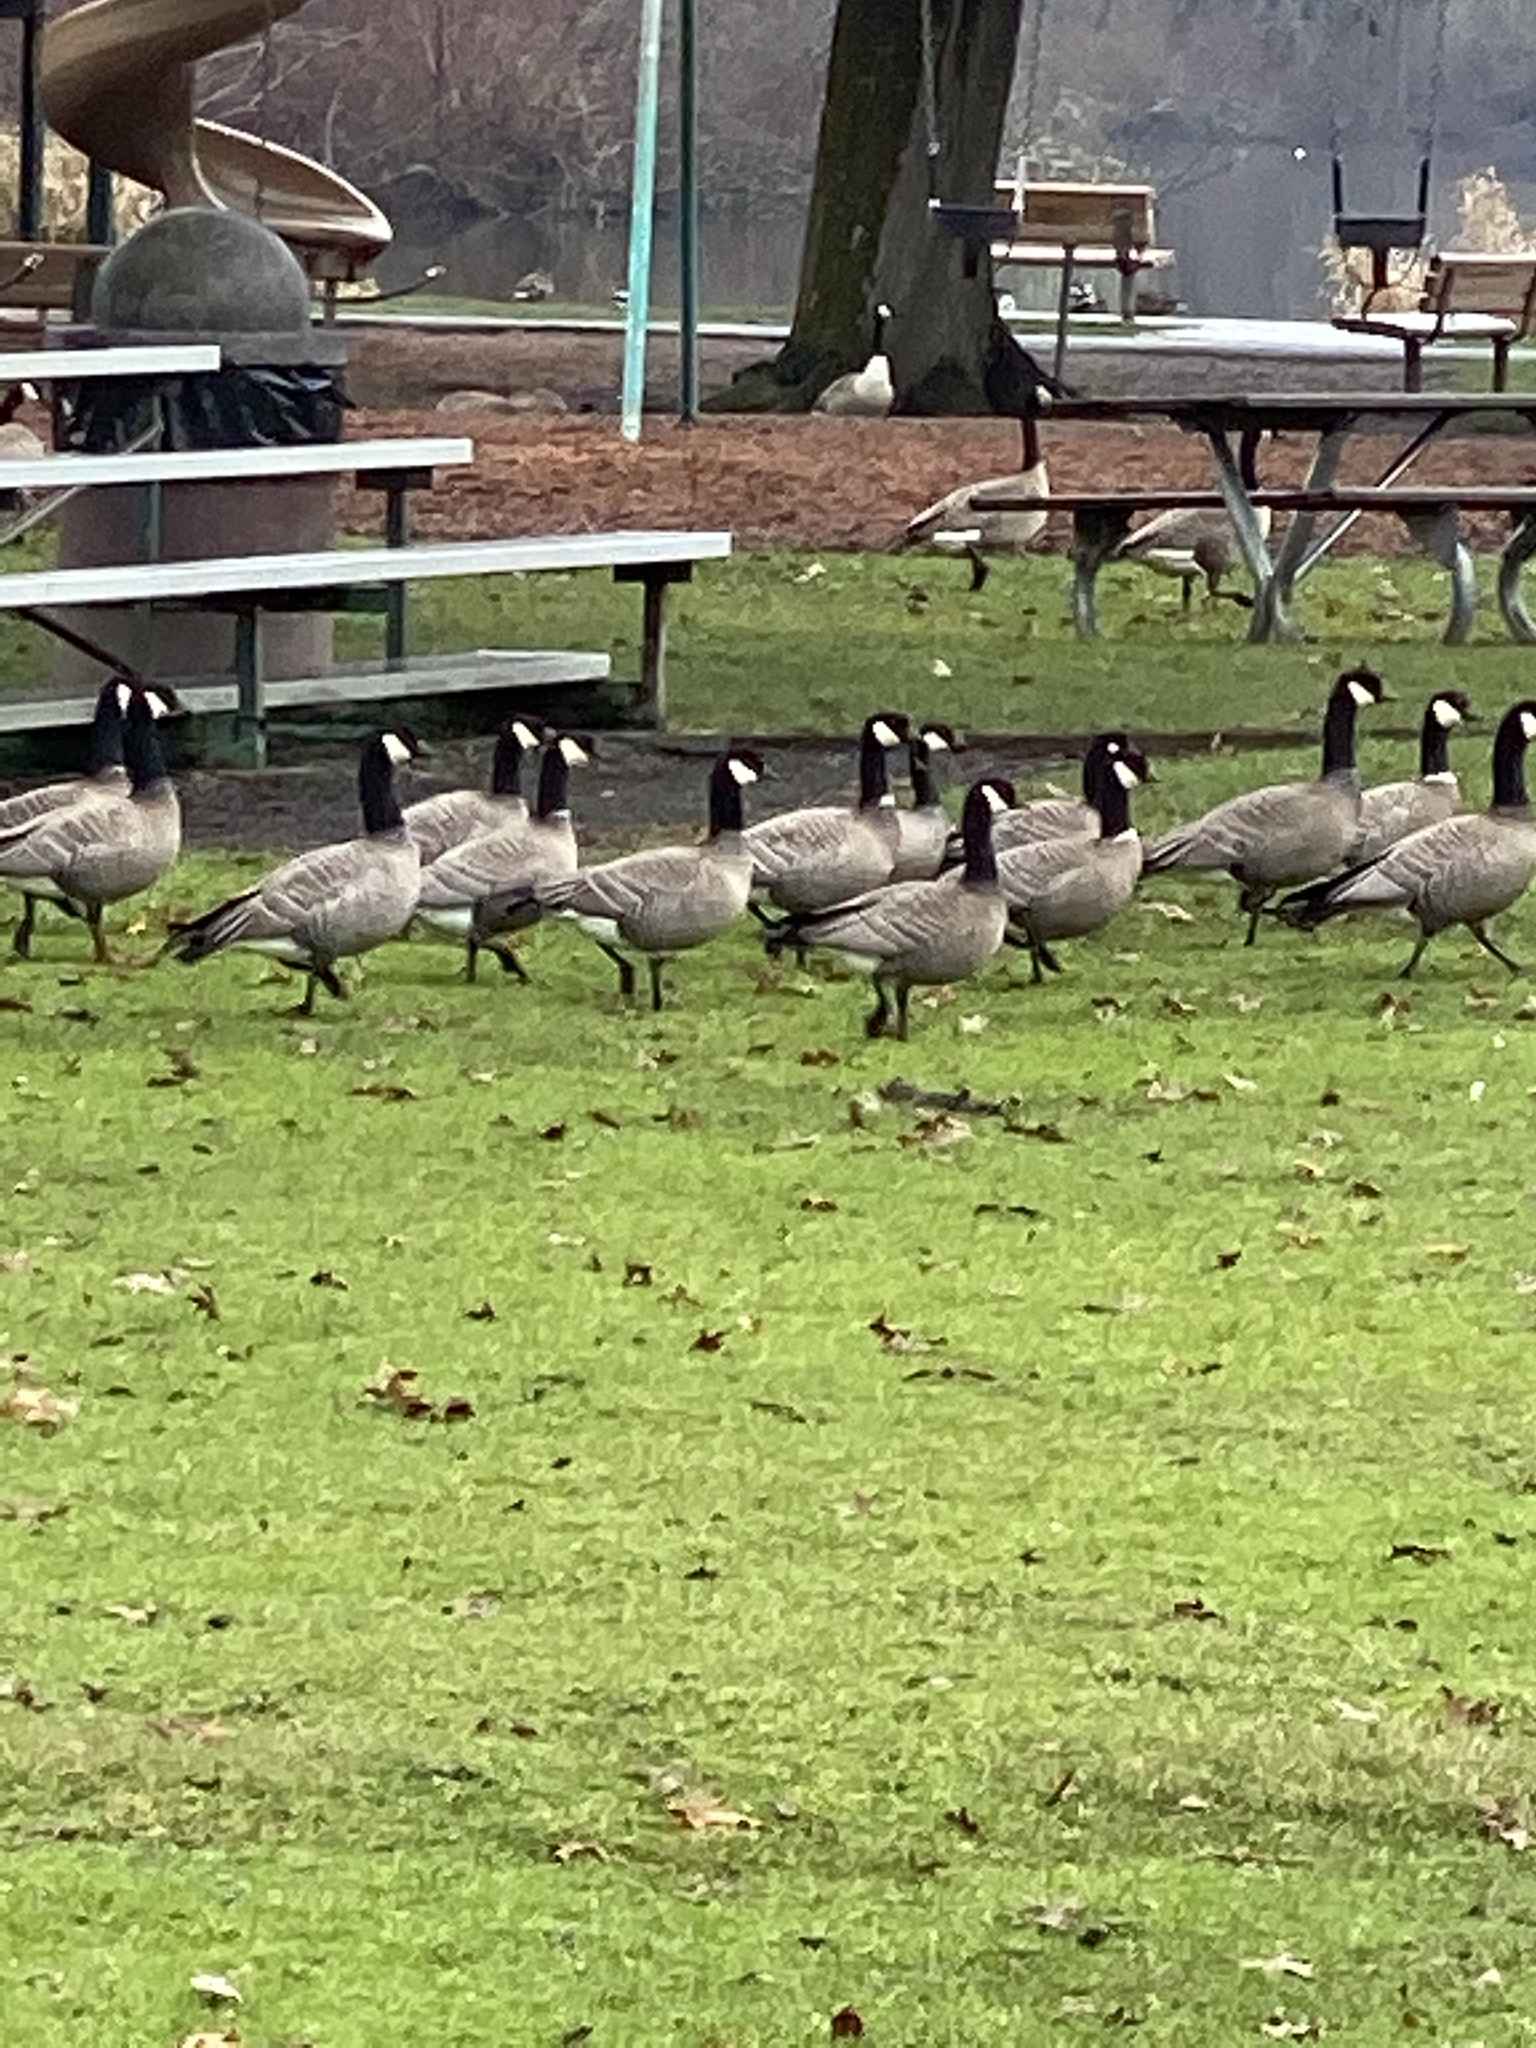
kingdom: Animalia
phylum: Chordata
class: Aves
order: Anseriformes
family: Anatidae
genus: Branta
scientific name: Branta hutchinsii
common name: Cackling goose
